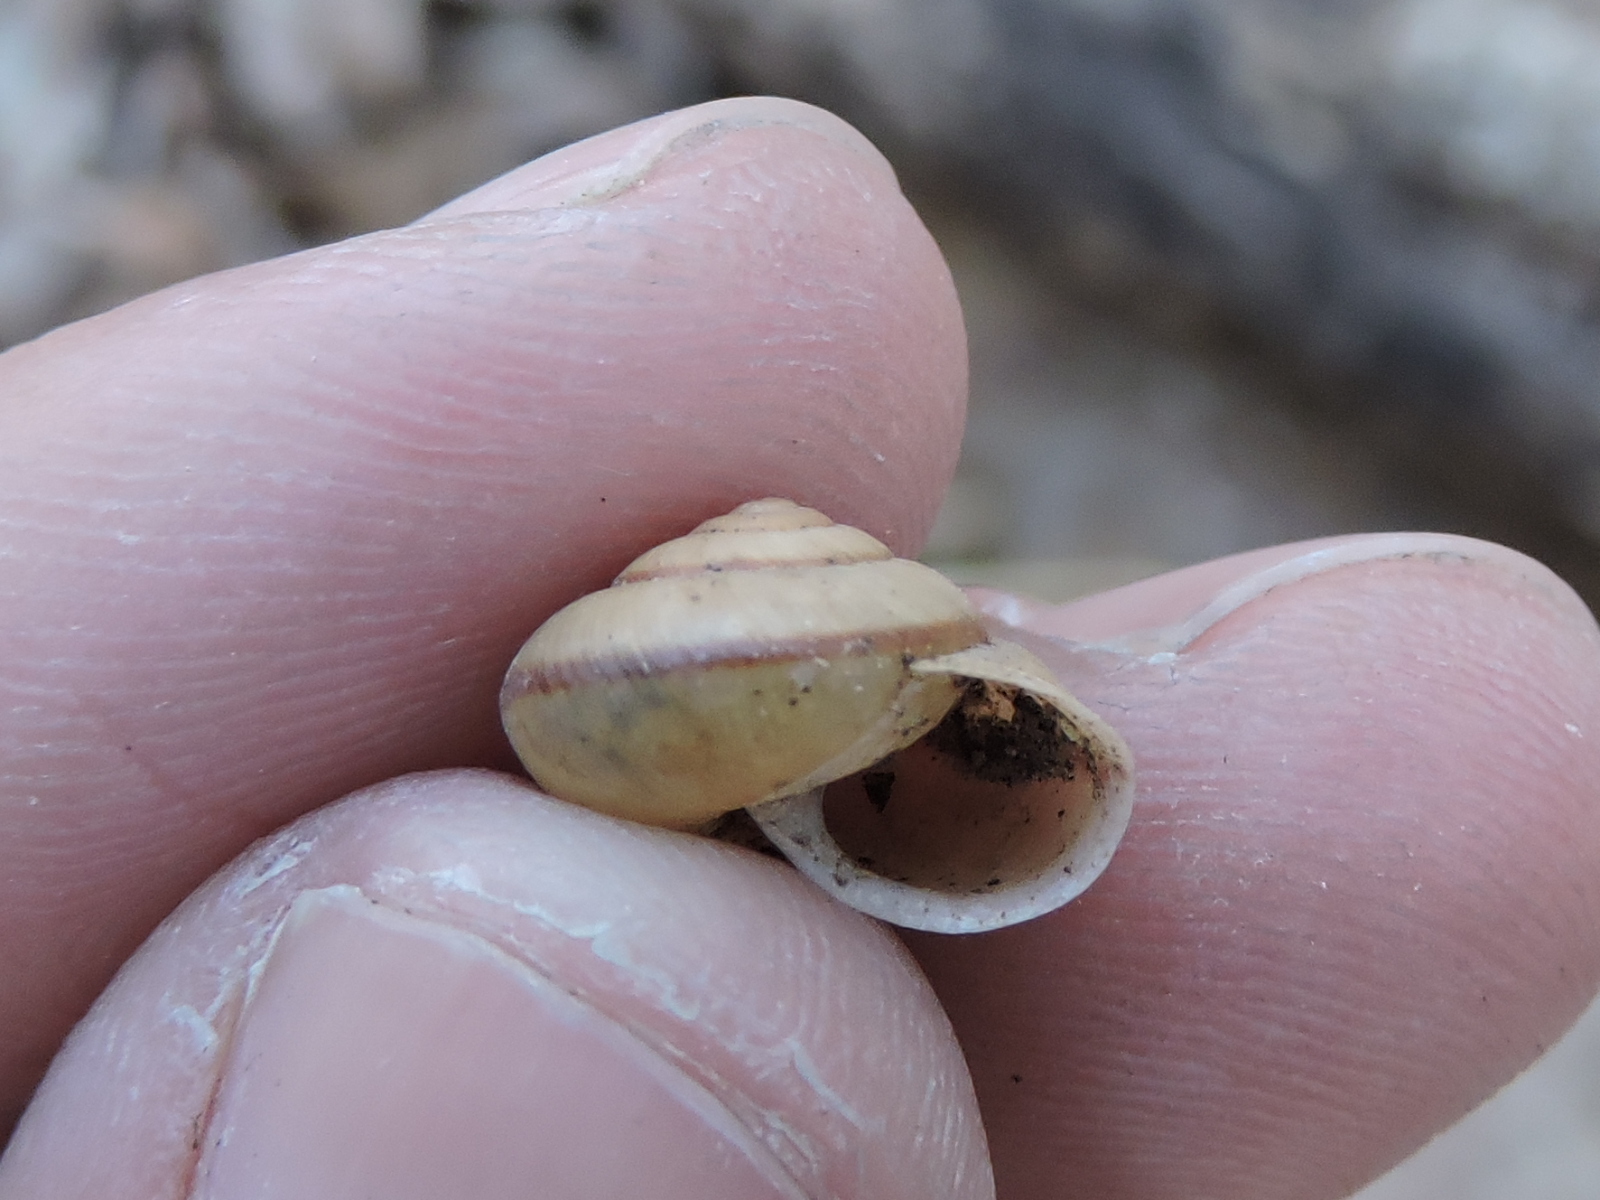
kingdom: Animalia
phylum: Mollusca
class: Gastropoda
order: Stylommatophora
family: Camaenidae
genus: Bradybaena
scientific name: Bradybaena similaris
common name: Asian trampsnail
